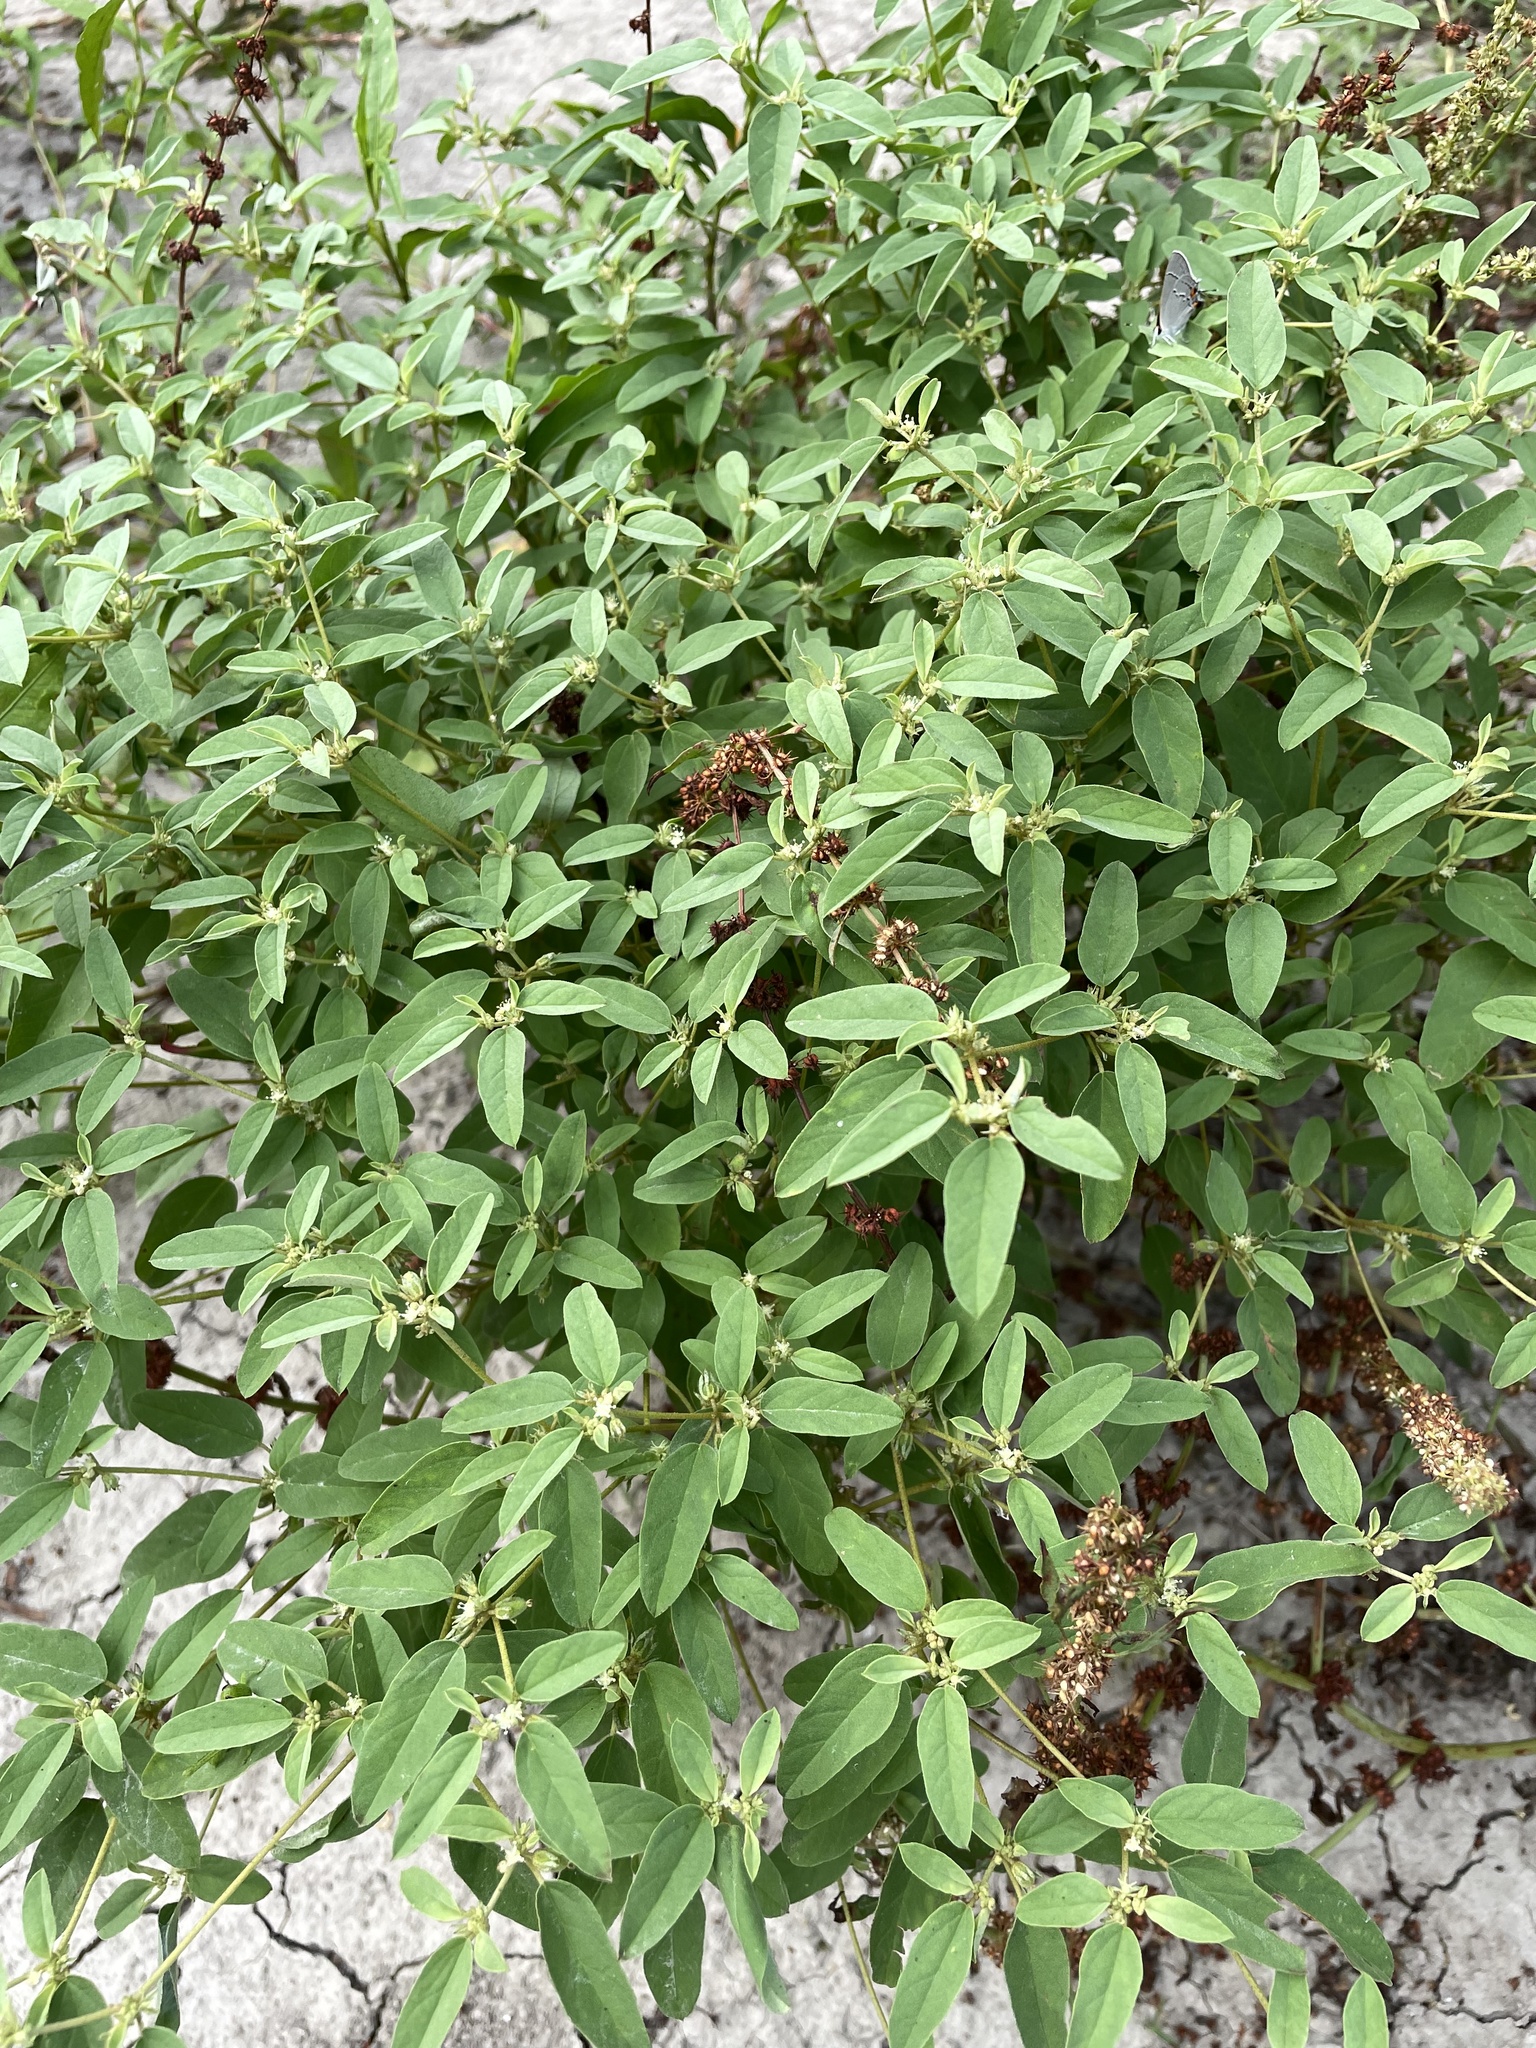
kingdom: Plantae
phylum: Tracheophyta
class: Magnoliopsida
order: Malpighiales
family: Euphorbiaceae
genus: Croton
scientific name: Croton monanthogynus
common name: One-seed croton
